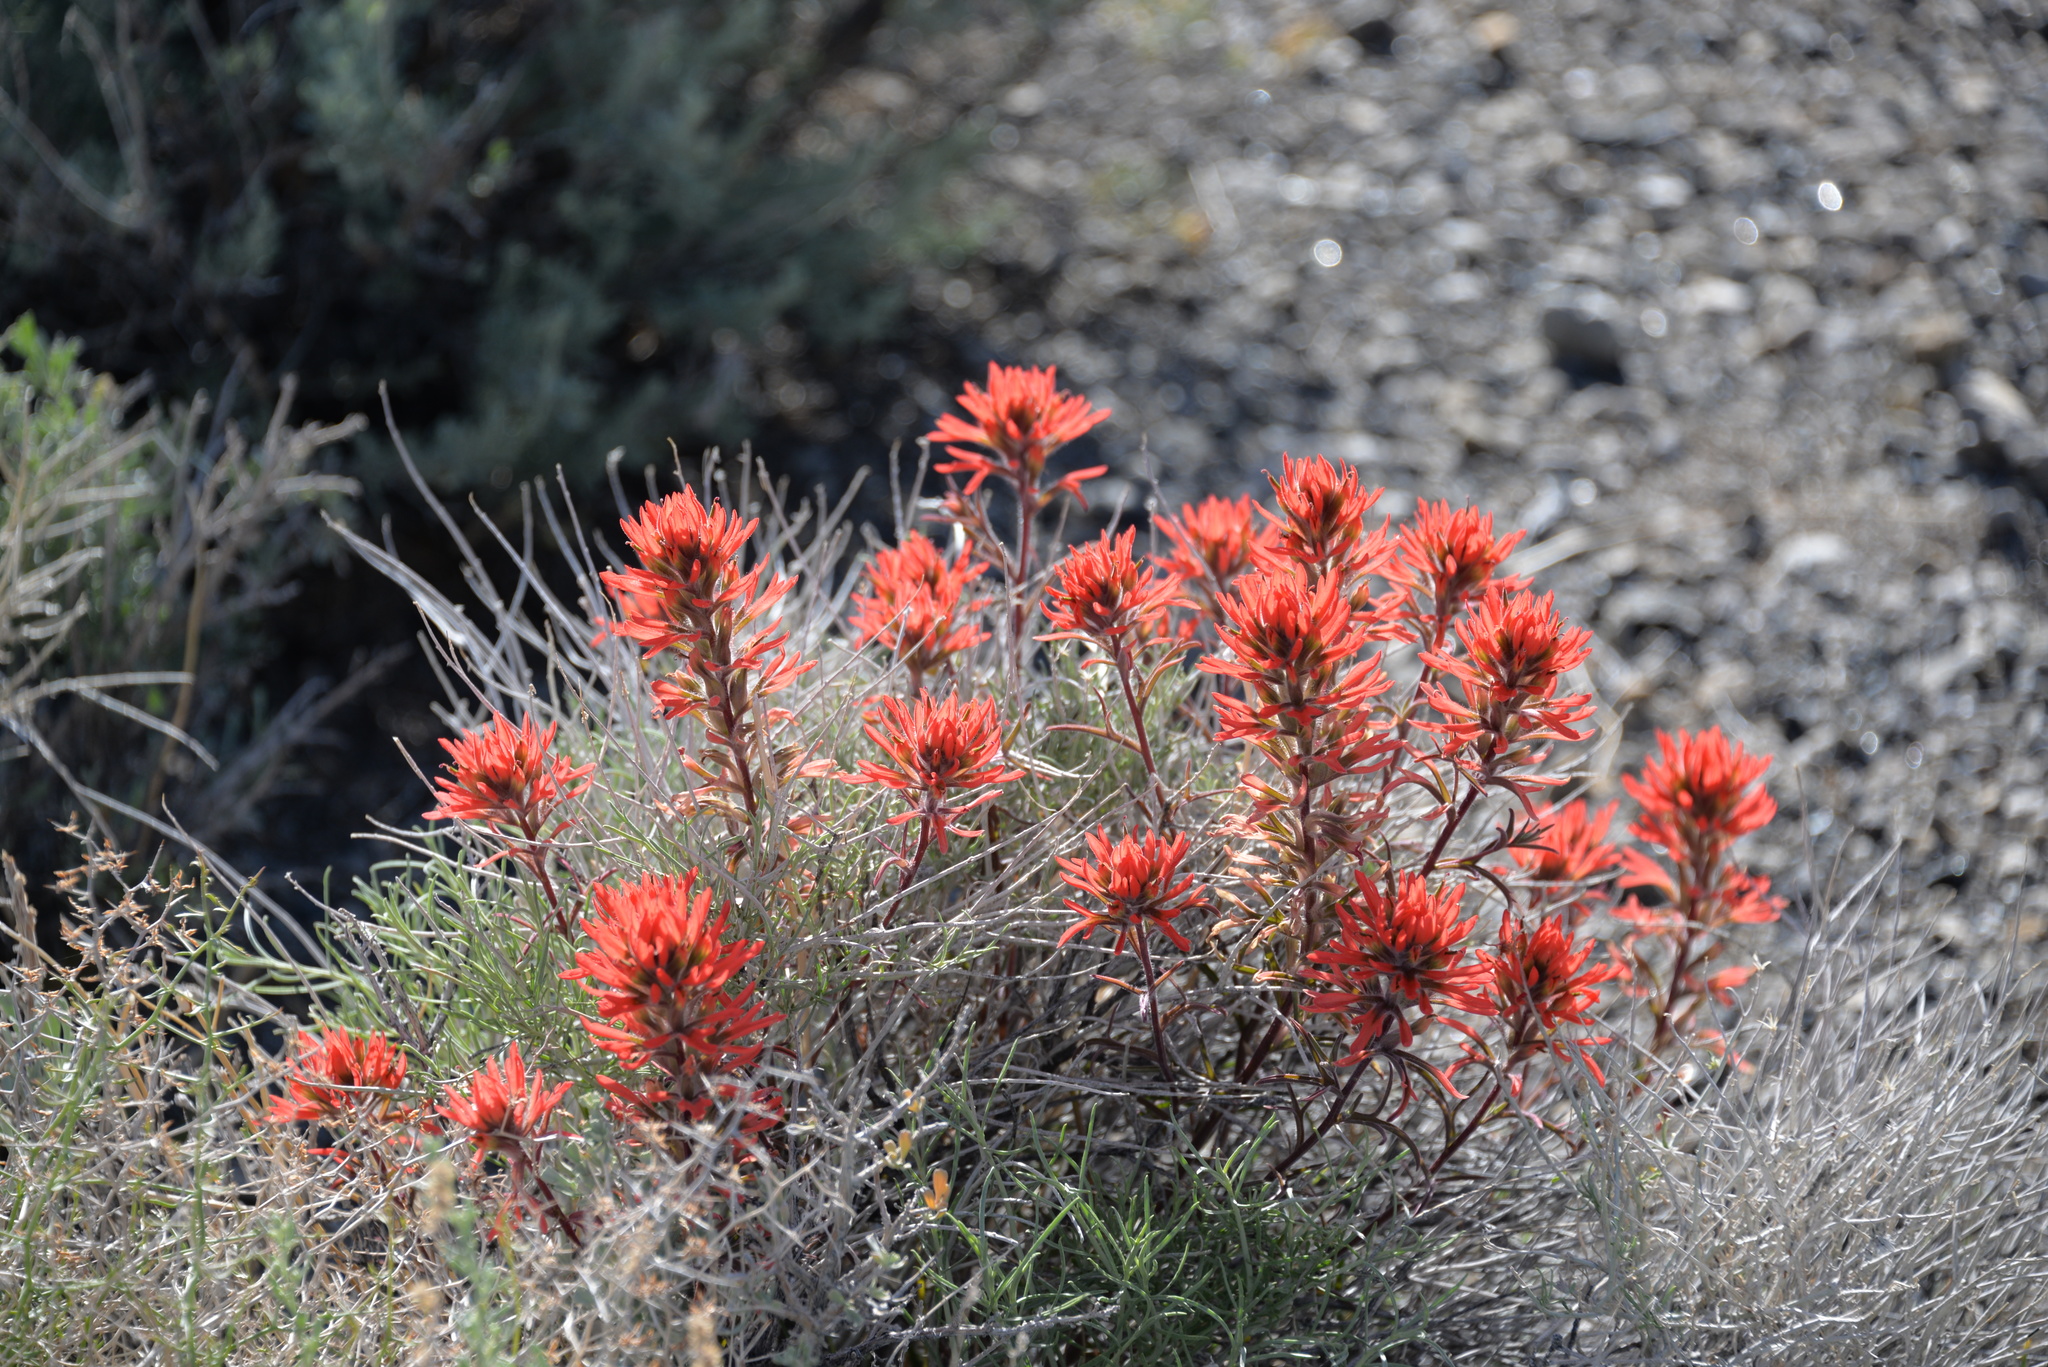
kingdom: Plantae
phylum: Tracheophyta
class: Magnoliopsida
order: Lamiales
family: Orobanchaceae
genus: Castilleja
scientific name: Castilleja chromosa
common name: Desert paintbrush
